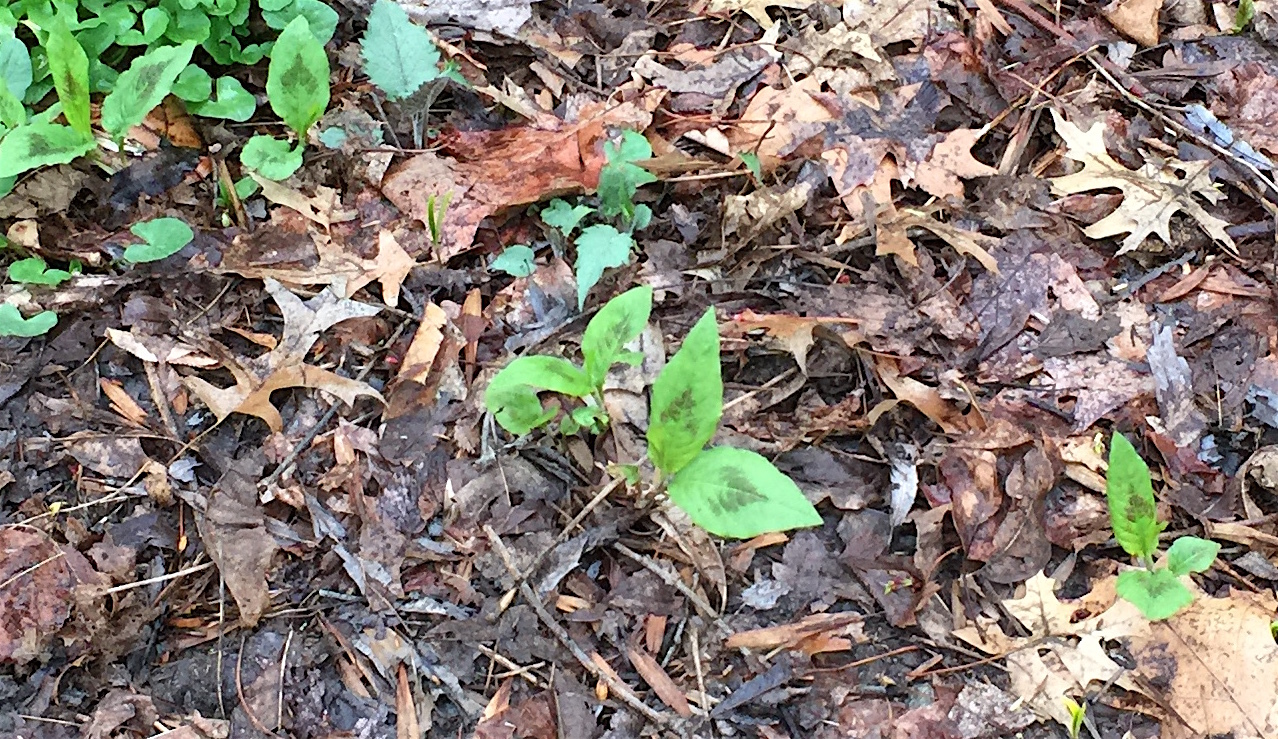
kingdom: Plantae
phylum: Tracheophyta
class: Magnoliopsida
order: Caryophyllales
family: Polygonaceae
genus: Persicaria
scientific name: Persicaria virginiana
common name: Jumpseed
